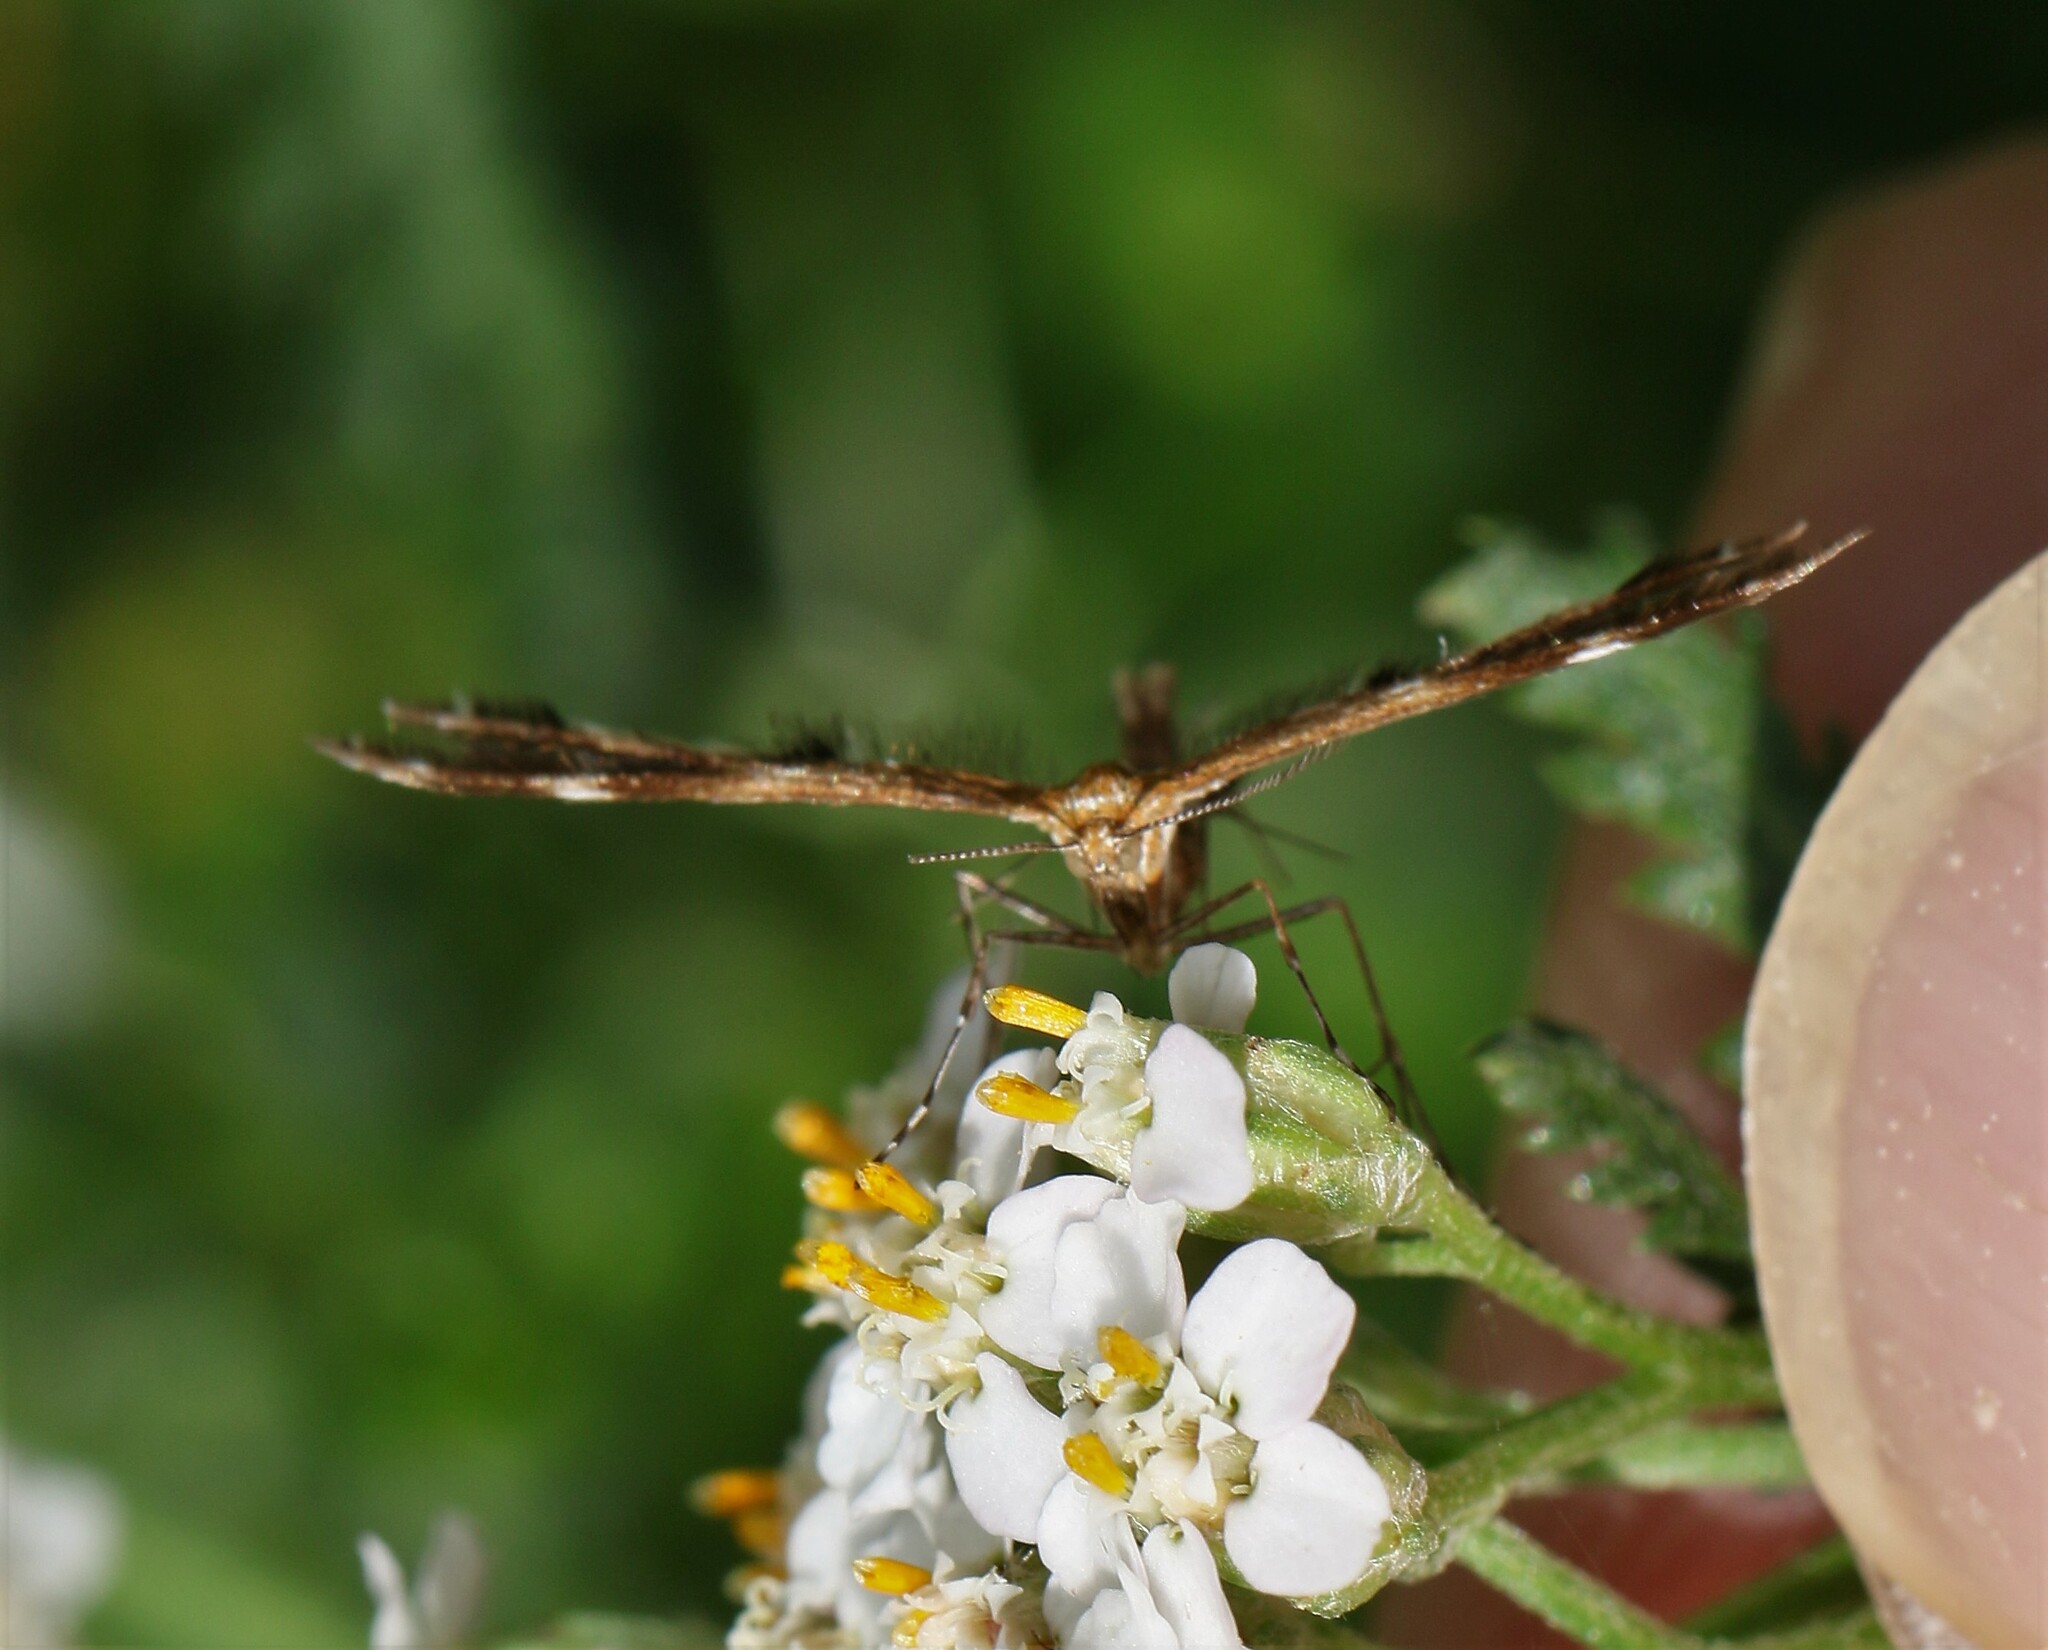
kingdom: Animalia
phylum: Arthropoda
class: Insecta
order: Lepidoptera
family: Pterophoridae
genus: Dejongia
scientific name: Dejongia lobidactylus
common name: Lobed plume moth
